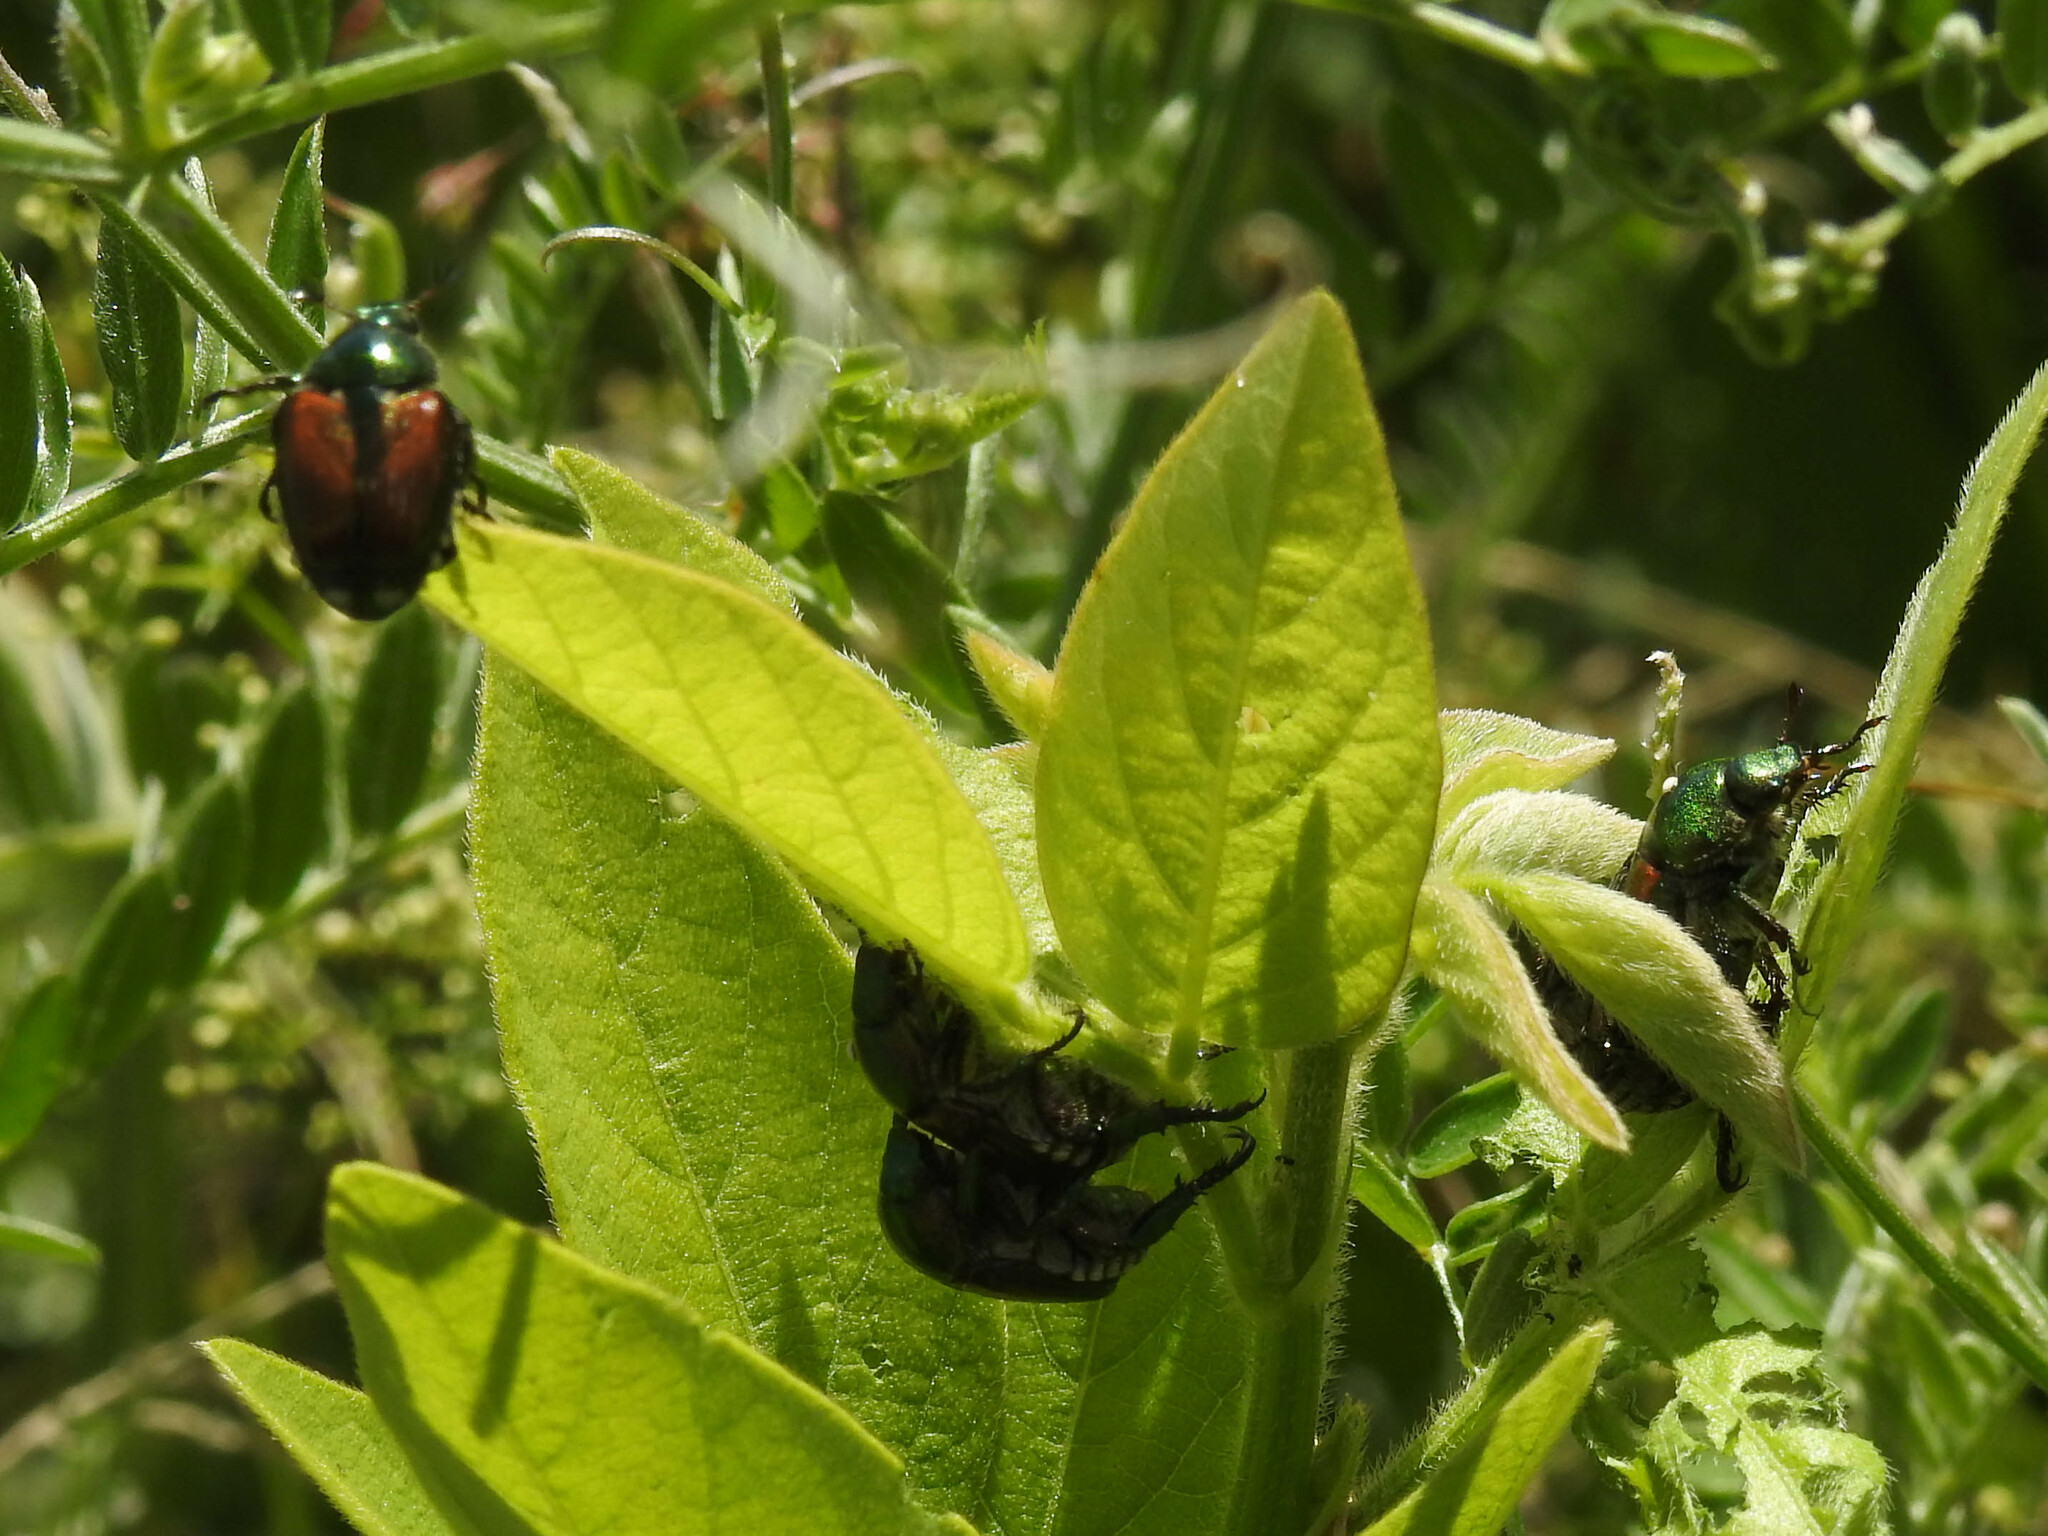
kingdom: Animalia
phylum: Arthropoda
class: Insecta
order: Coleoptera
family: Scarabaeidae
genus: Popillia
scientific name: Popillia japonica
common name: Japanese beetle
